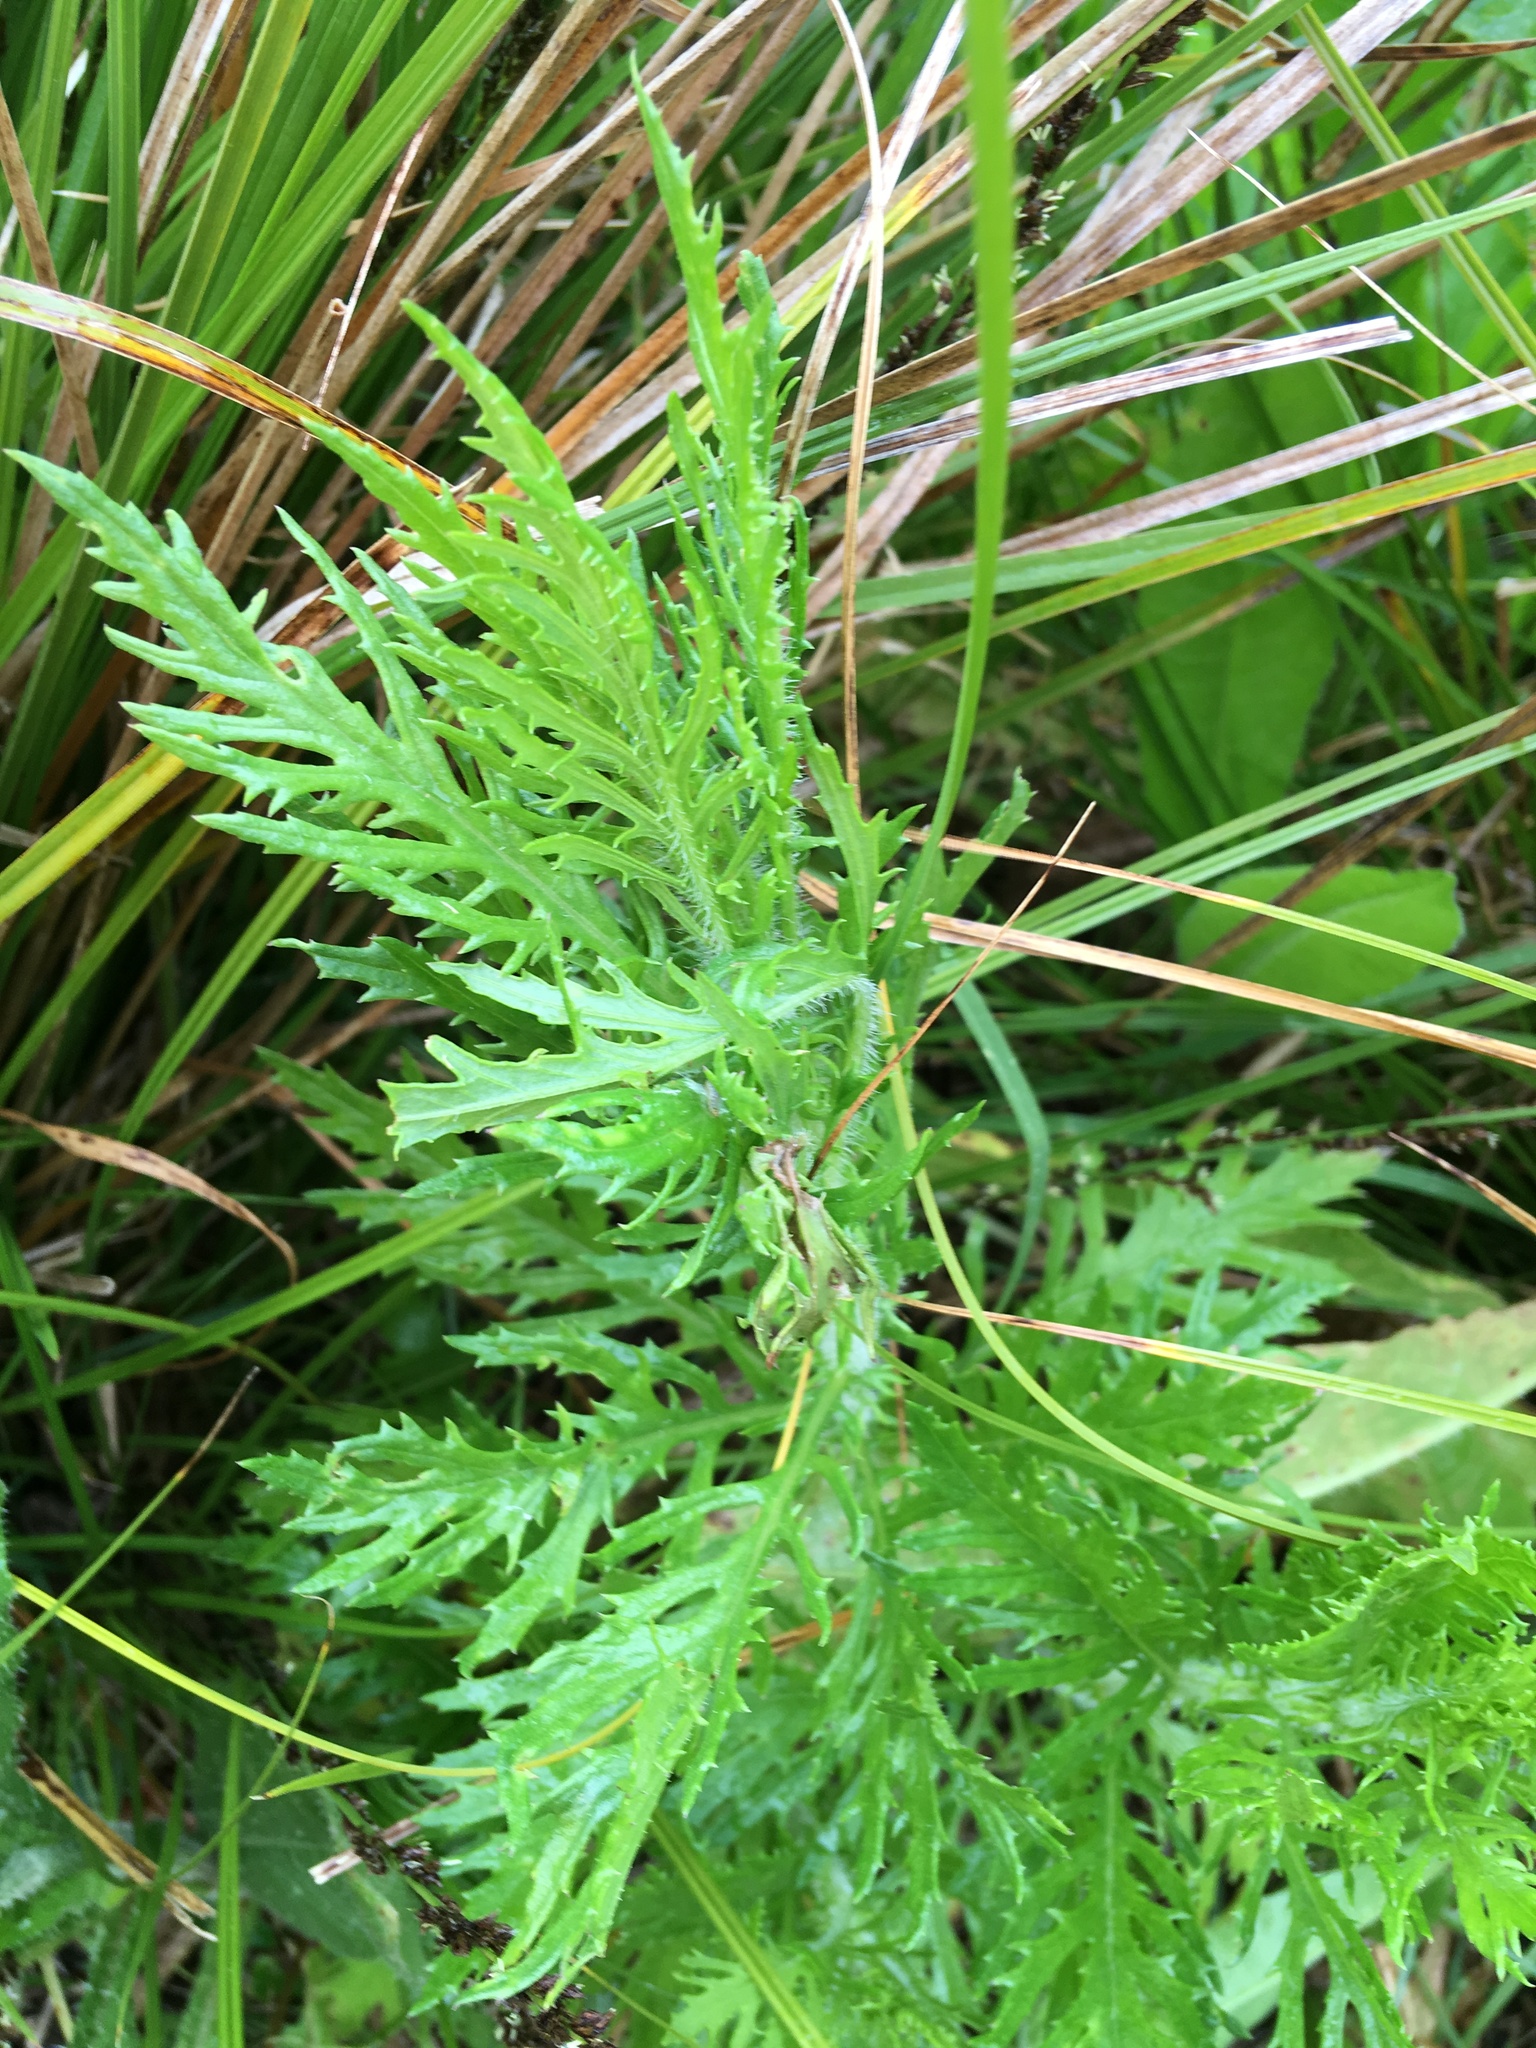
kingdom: Plantae
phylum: Tracheophyta
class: Magnoliopsida
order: Asterales
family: Asteraceae
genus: Senecio
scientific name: Senecio esleri
